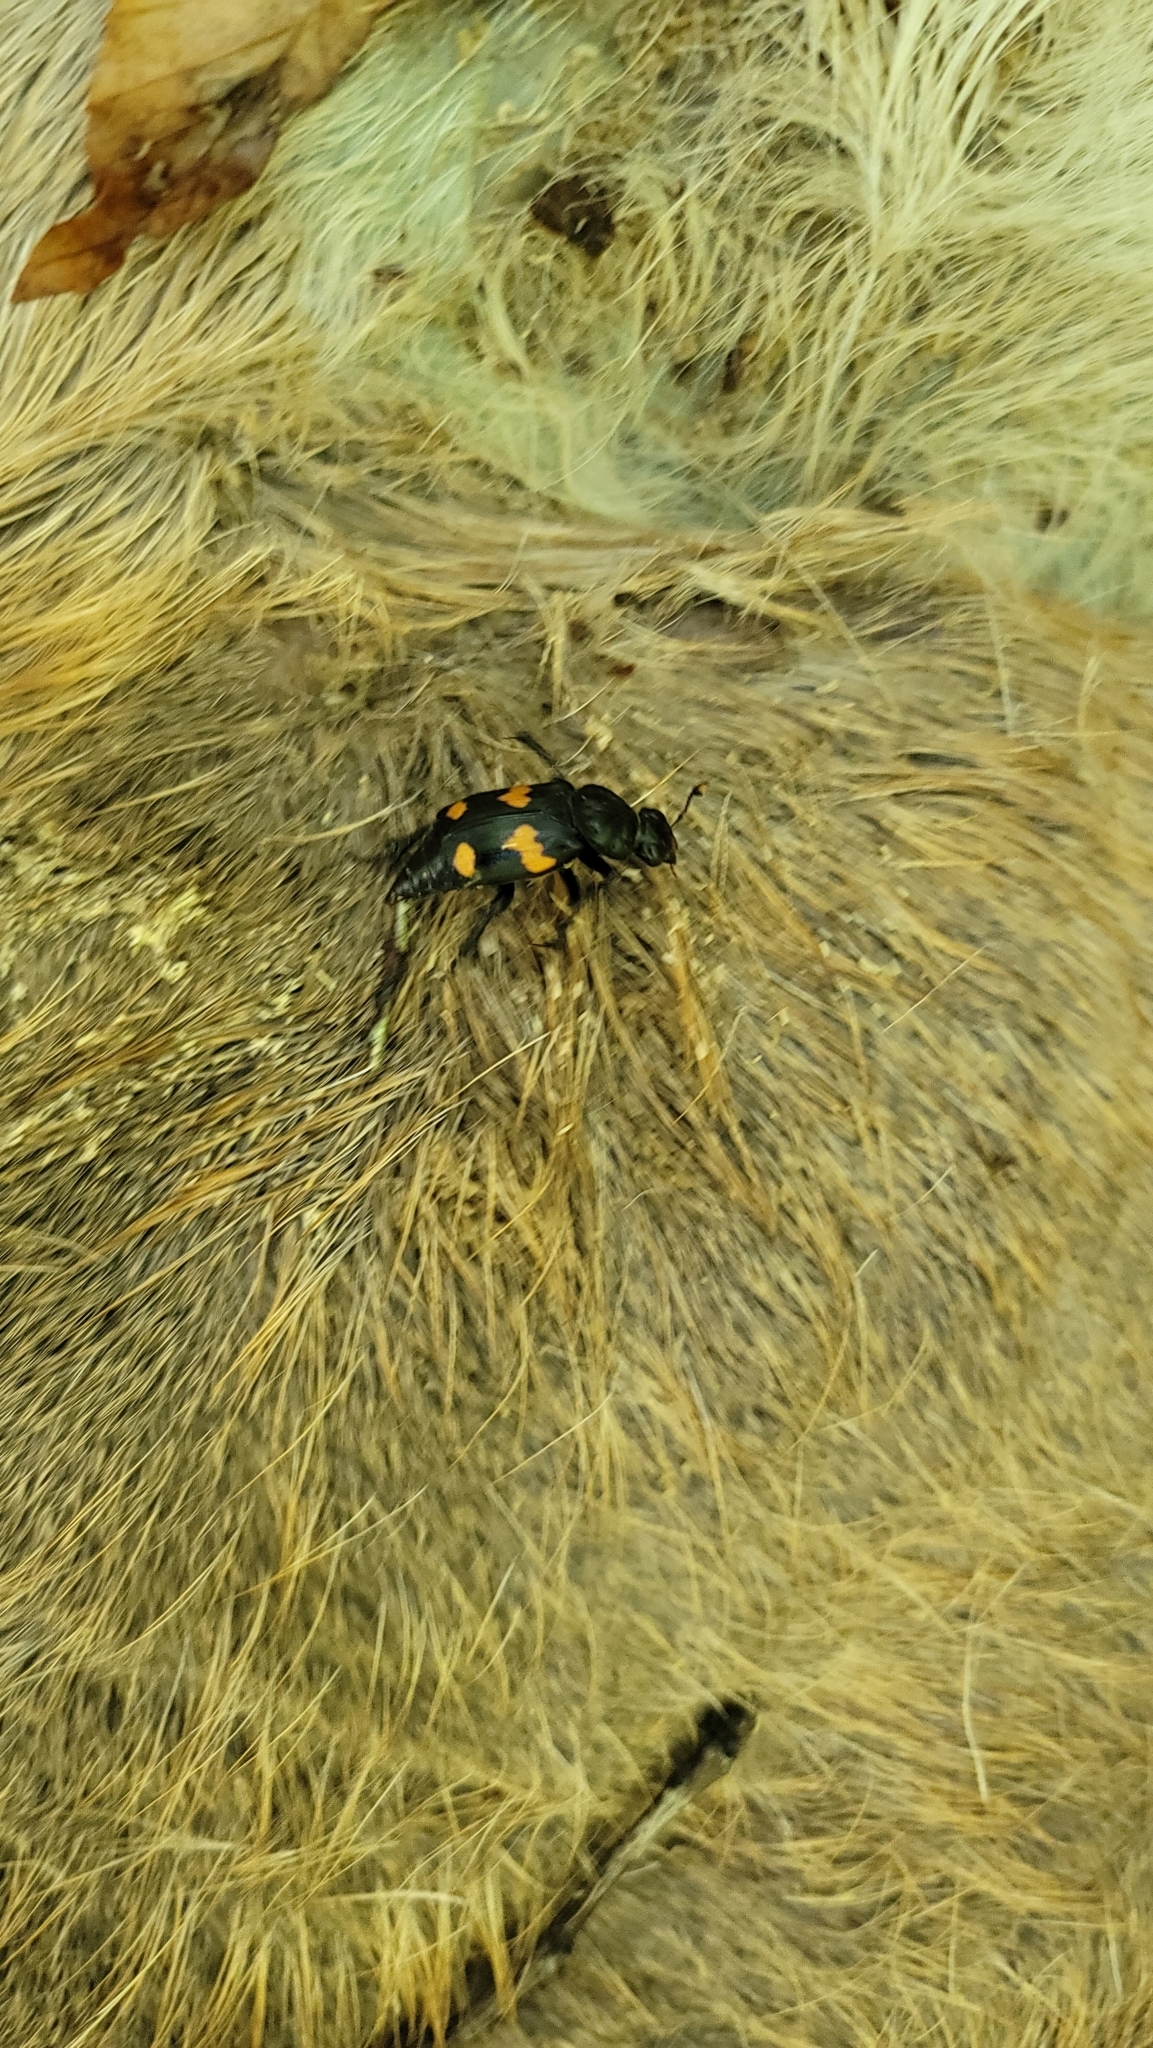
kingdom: Animalia
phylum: Arthropoda
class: Insecta
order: Coleoptera
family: Staphylinidae
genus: Nicrophorus
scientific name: Nicrophorus orbicollis
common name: Roundneck sexton beetle
